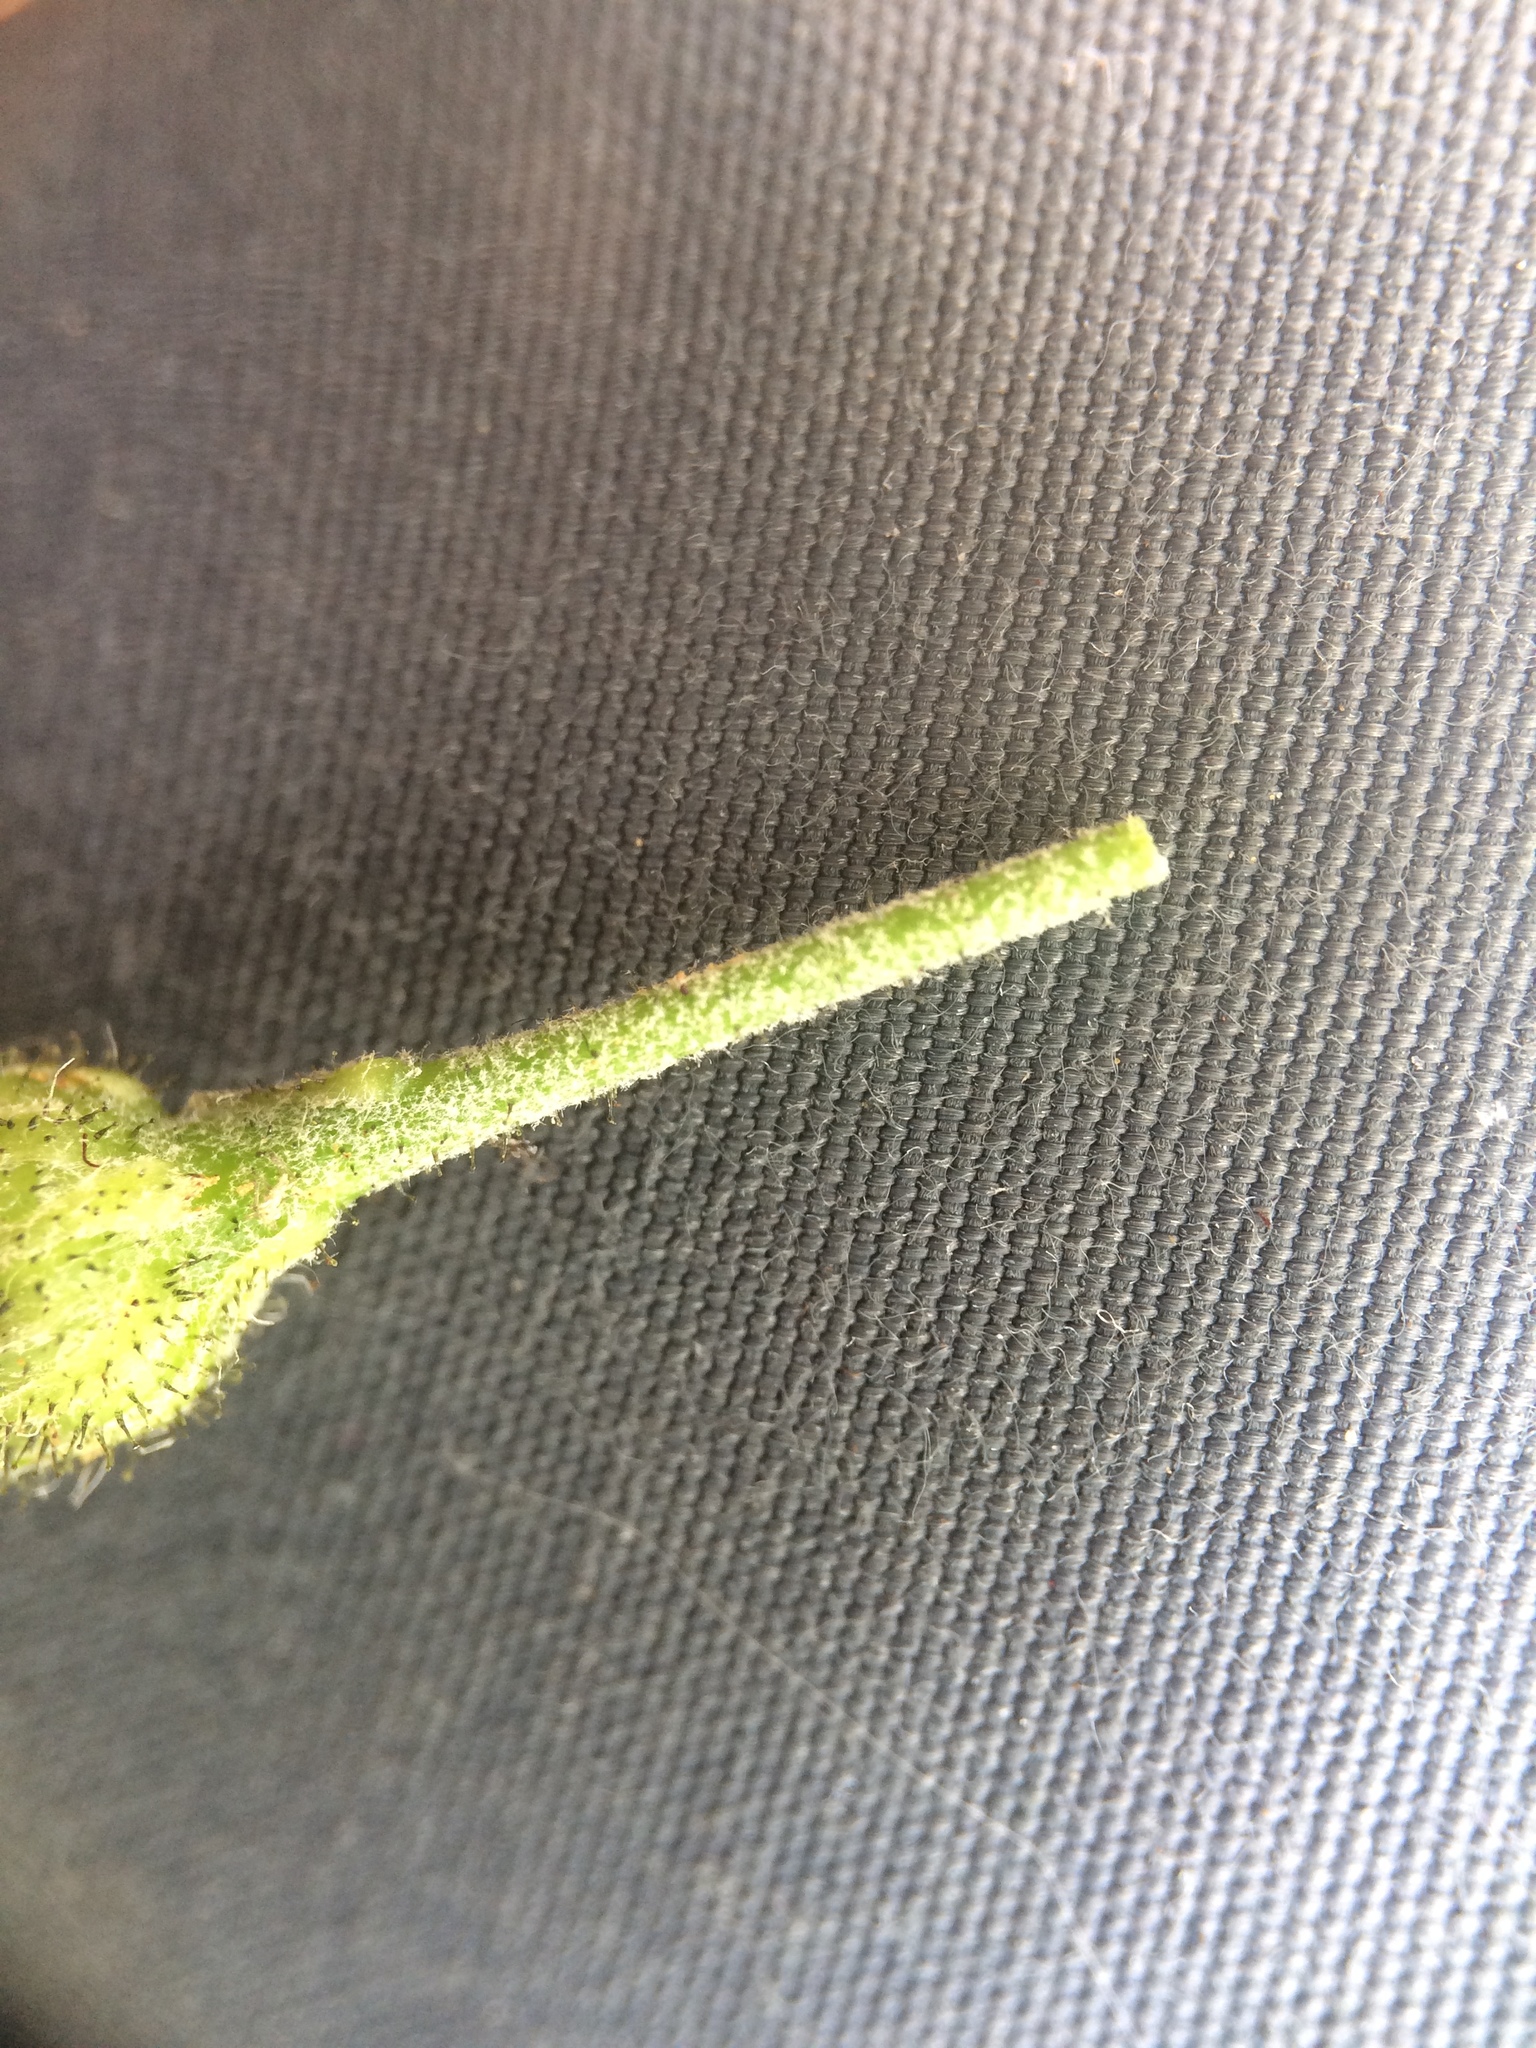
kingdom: Plantae
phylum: Tracheophyta
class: Magnoliopsida
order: Asterales
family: Asteraceae
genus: Hieracium
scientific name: Hieracium lachenalii
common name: Common hawkweed
